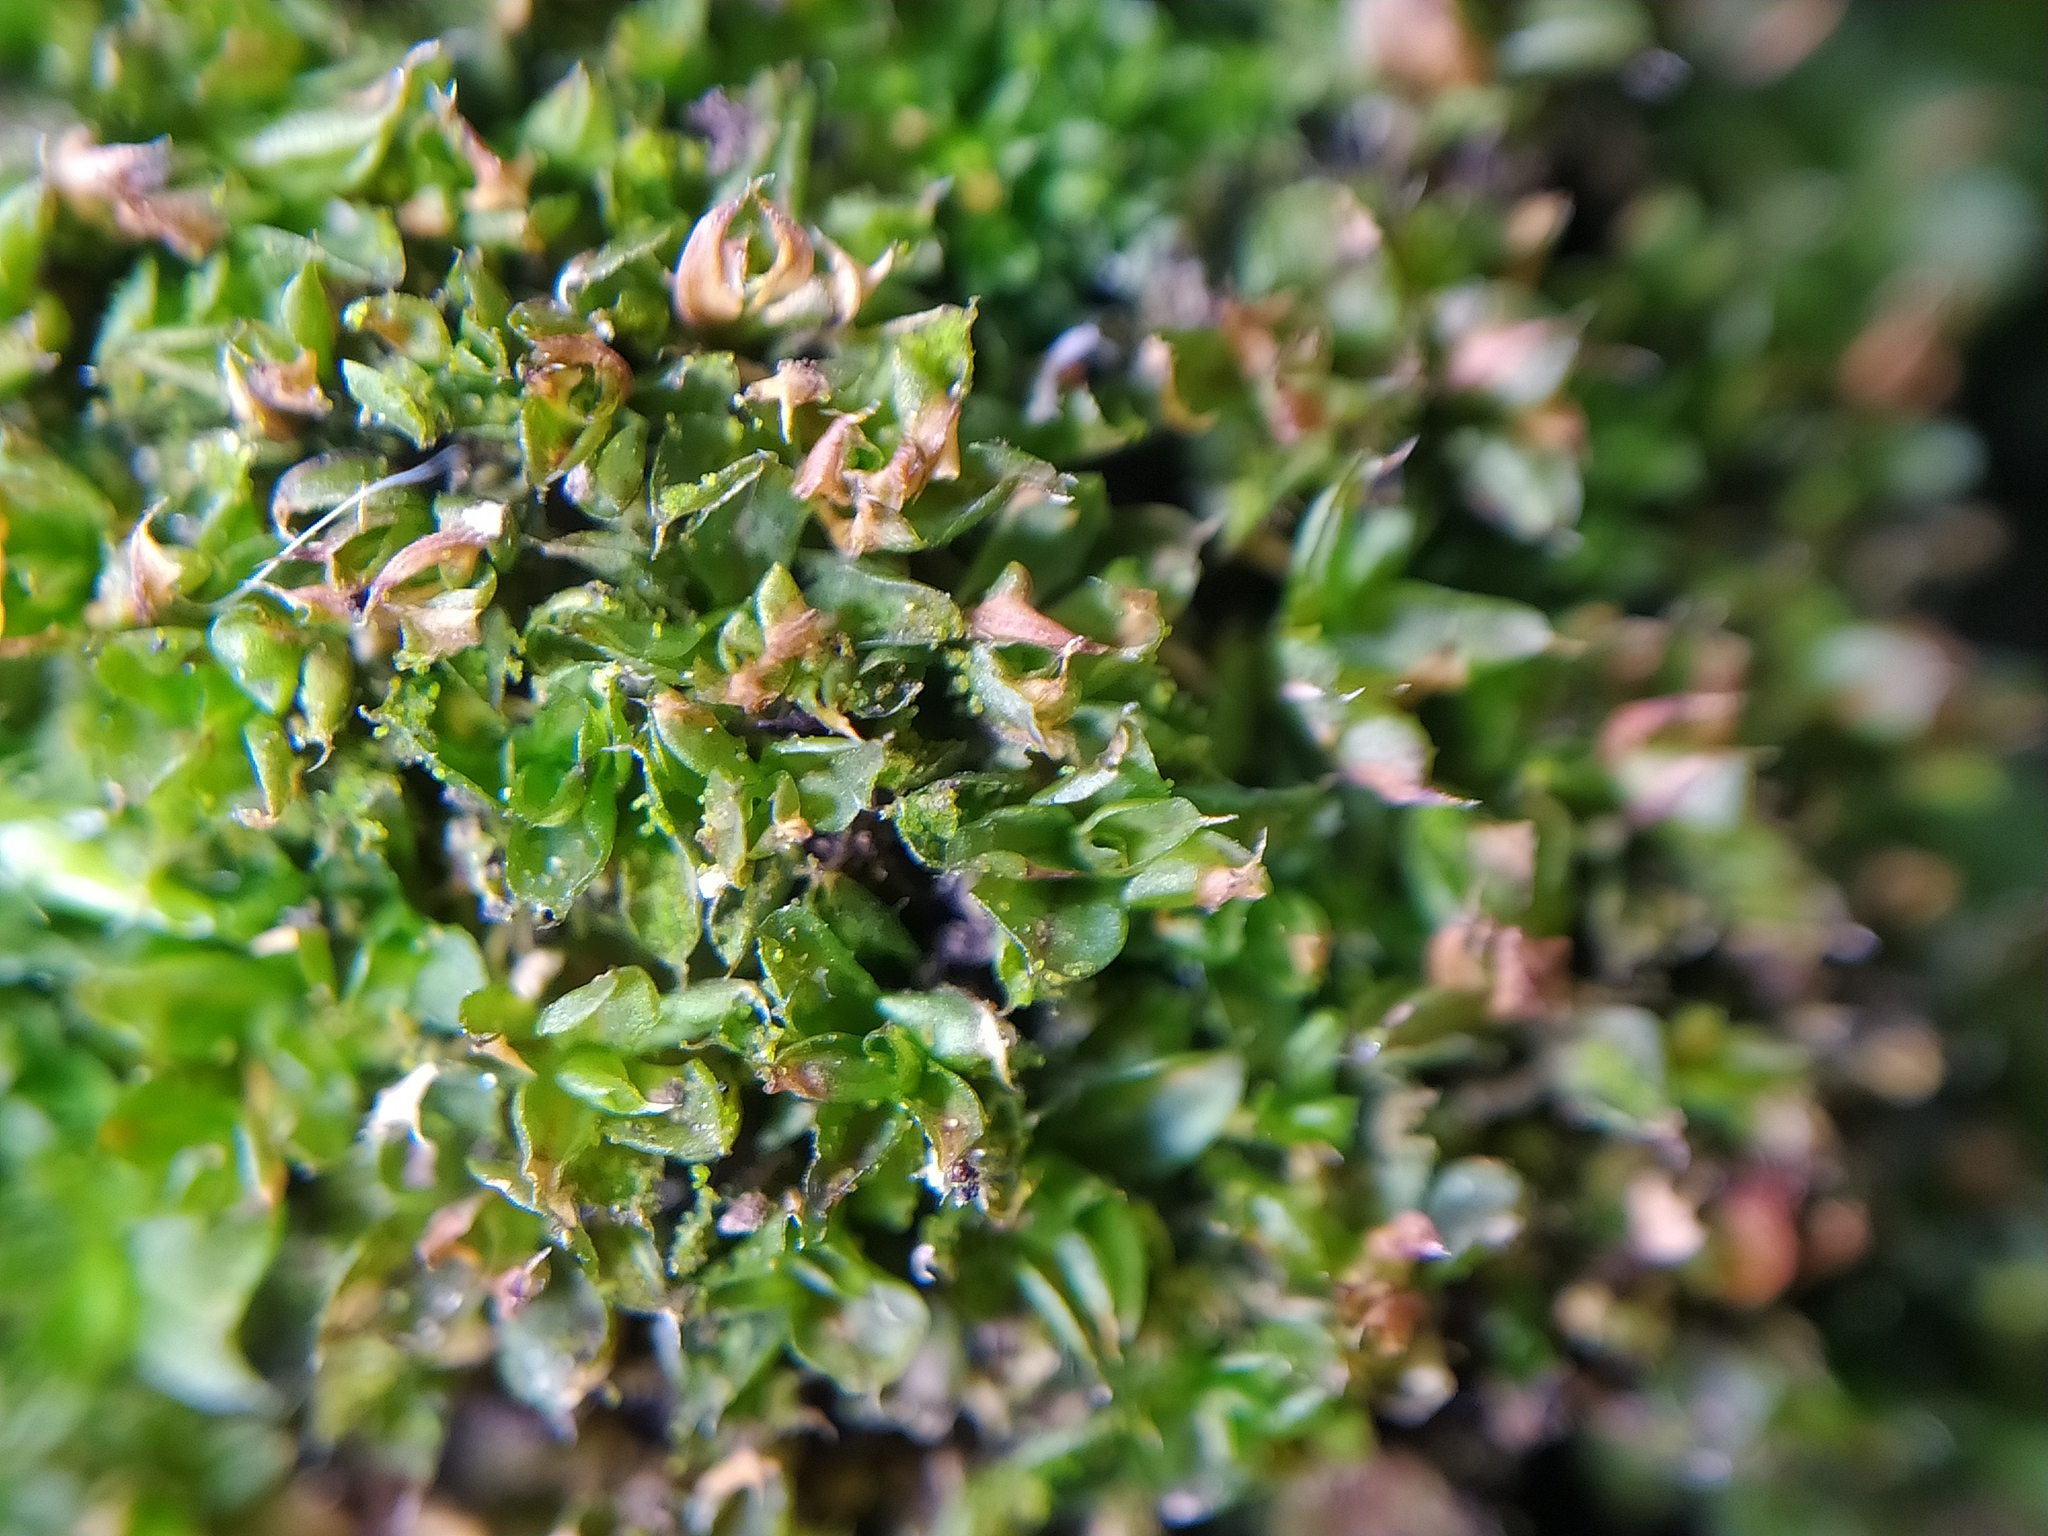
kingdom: Plantae
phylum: Bryophyta
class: Bryopsida
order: Pottiales
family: Pottiaceae
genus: Syntrichia
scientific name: Syntrichia papillosa
